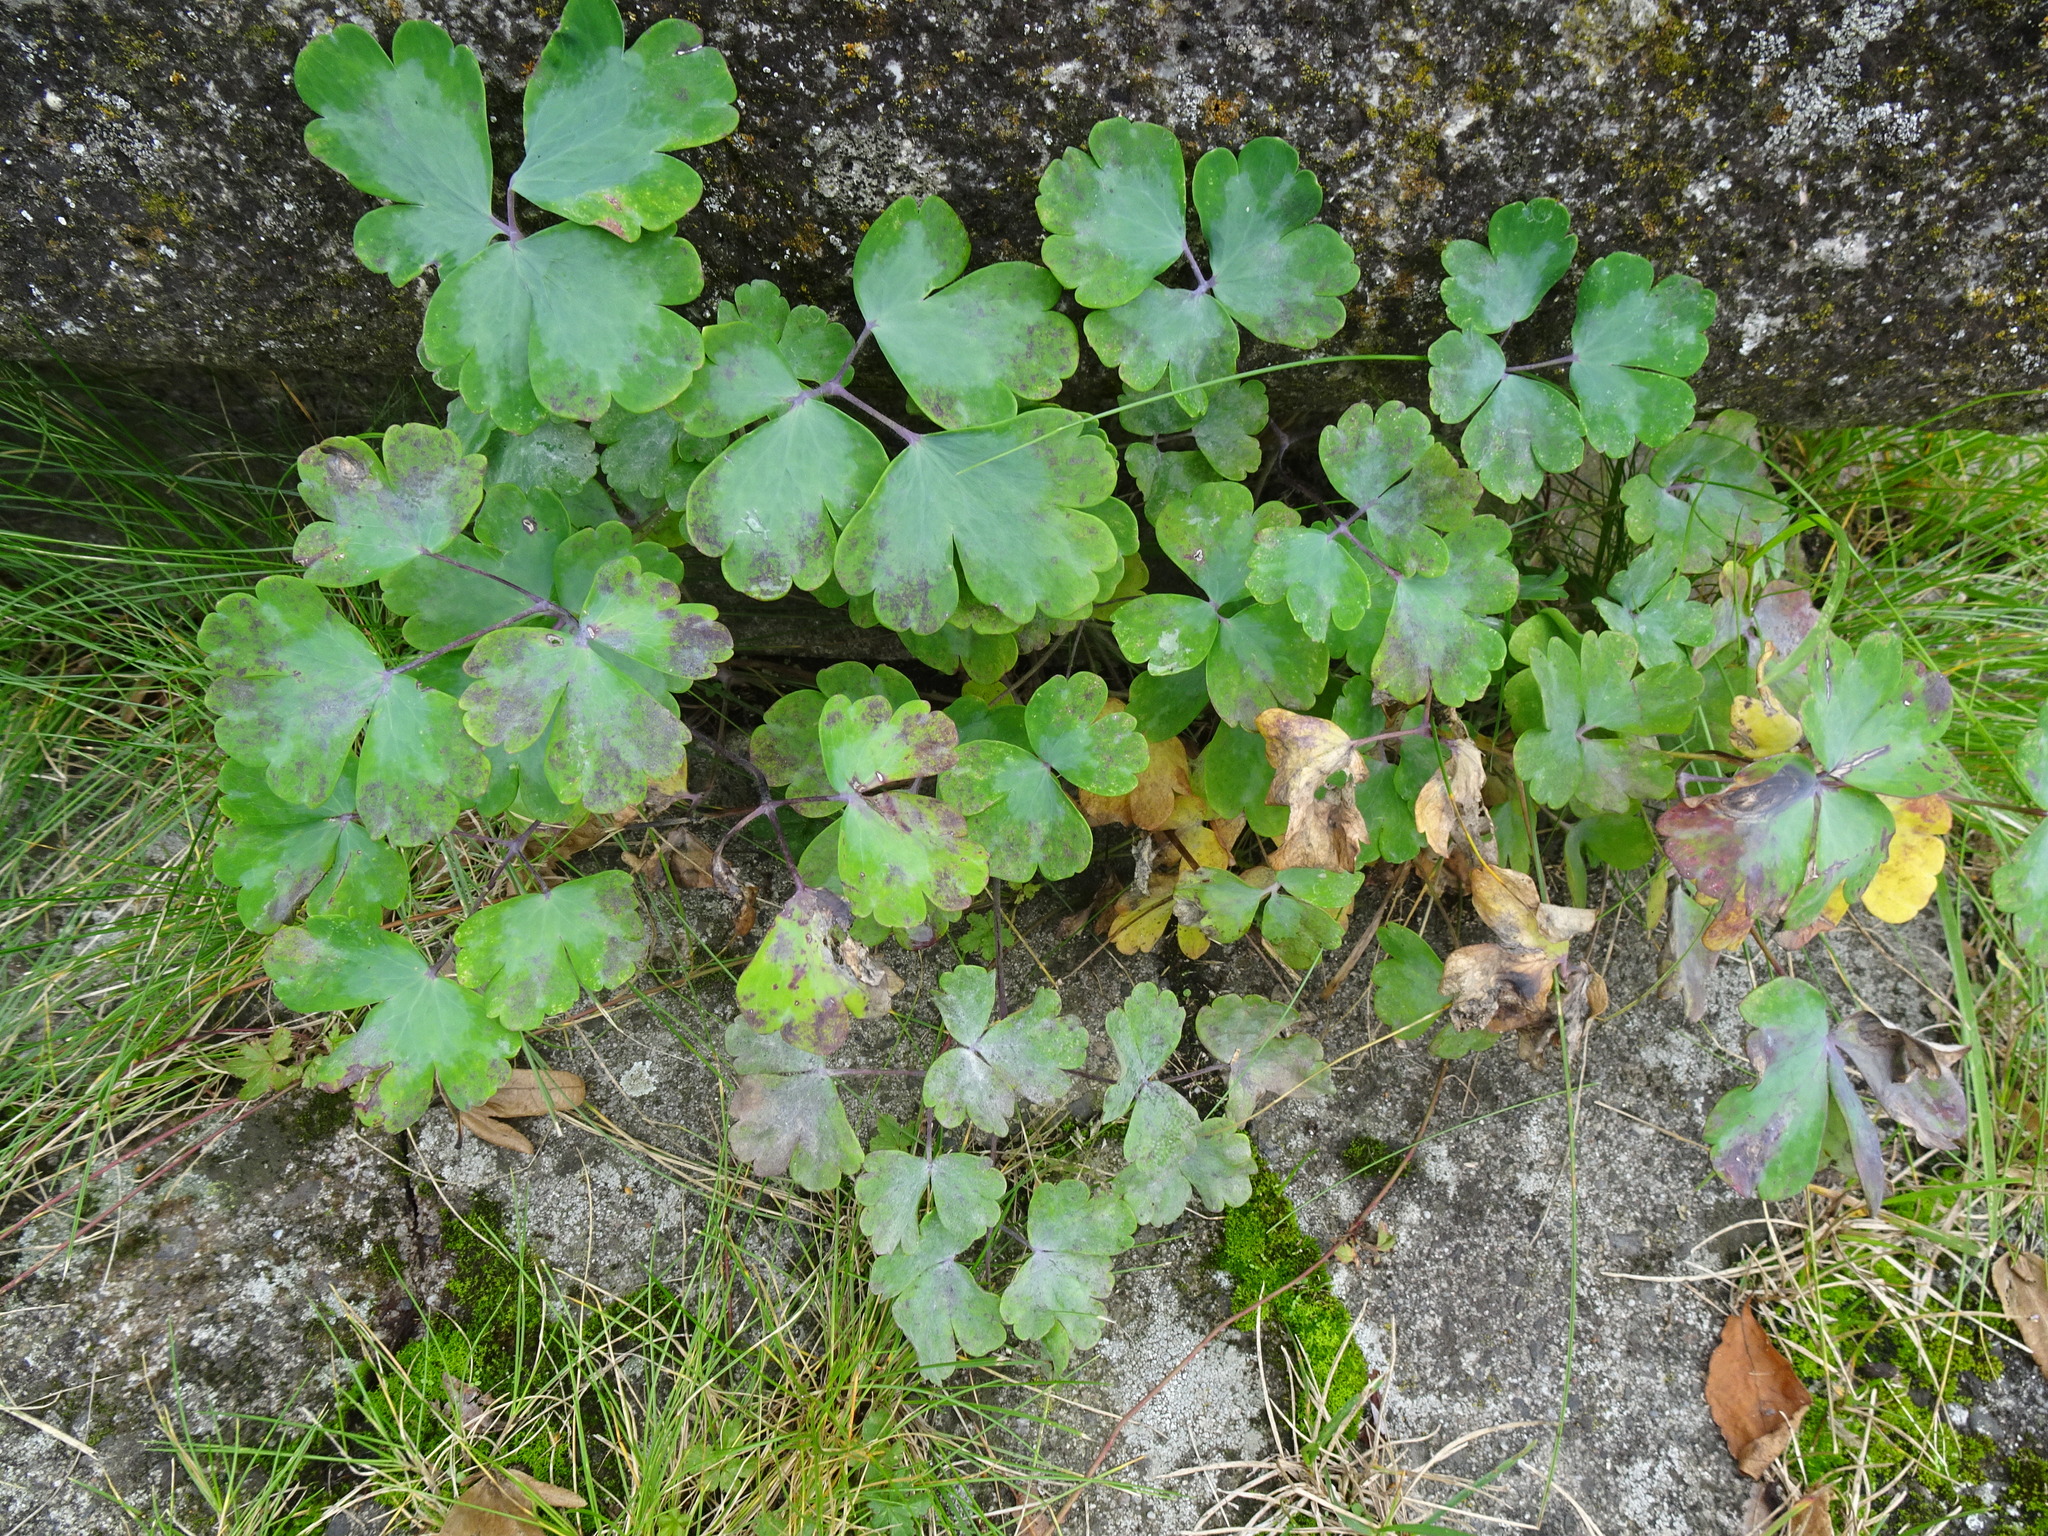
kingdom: Plantae
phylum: Tracheophyta
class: Magnoliopsida
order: Ranunculales
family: Ranunculaceae
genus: Aquilegia
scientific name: Aquilegia vulgaris
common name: Columbine
